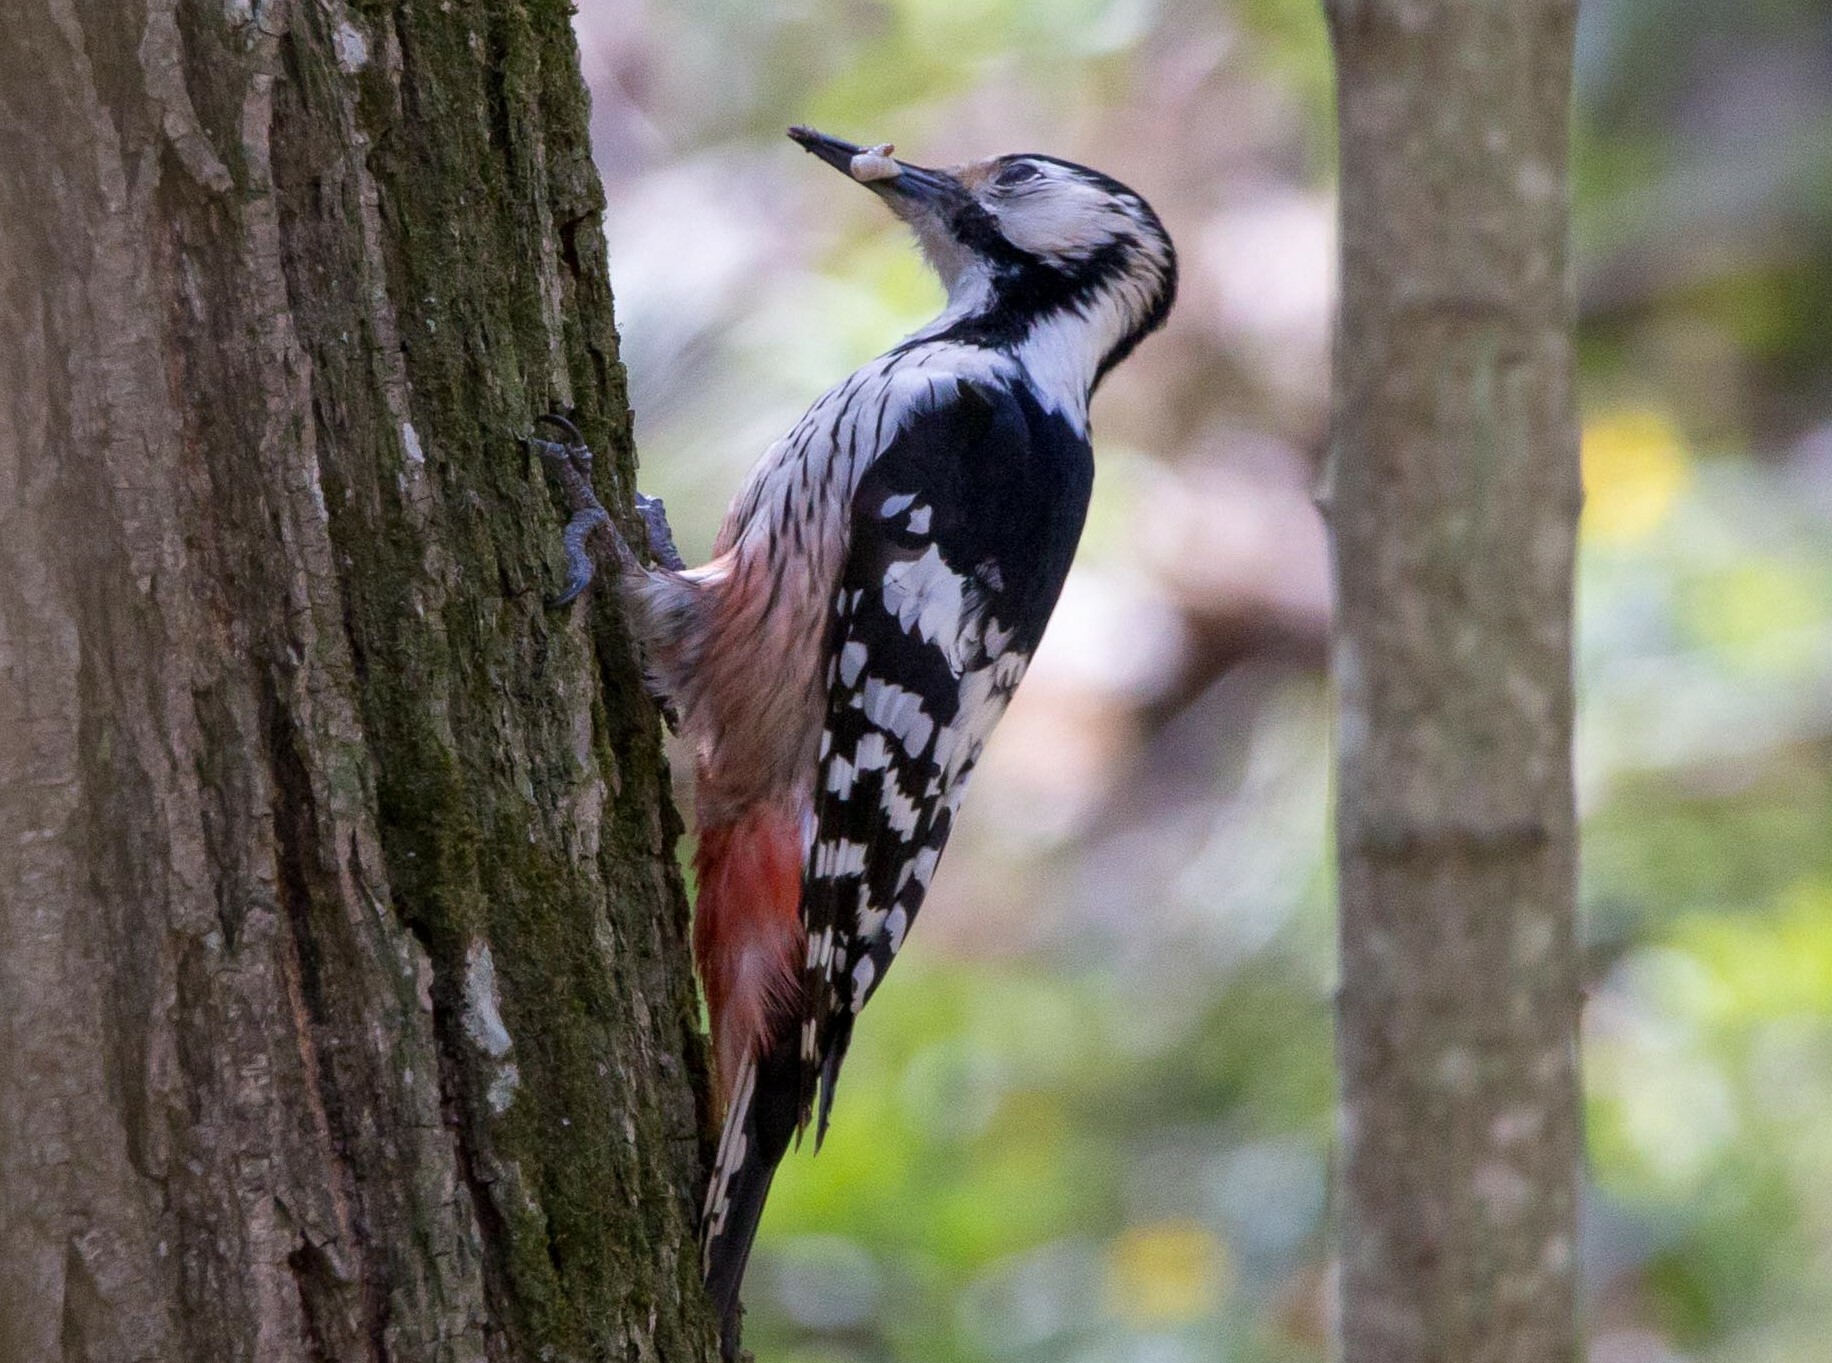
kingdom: Animalia
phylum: Chordata
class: Aves
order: Piciformes
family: Picidae
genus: Dendrocopos
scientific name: Dendrocopos leucotos
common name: White-backed woodpecker
